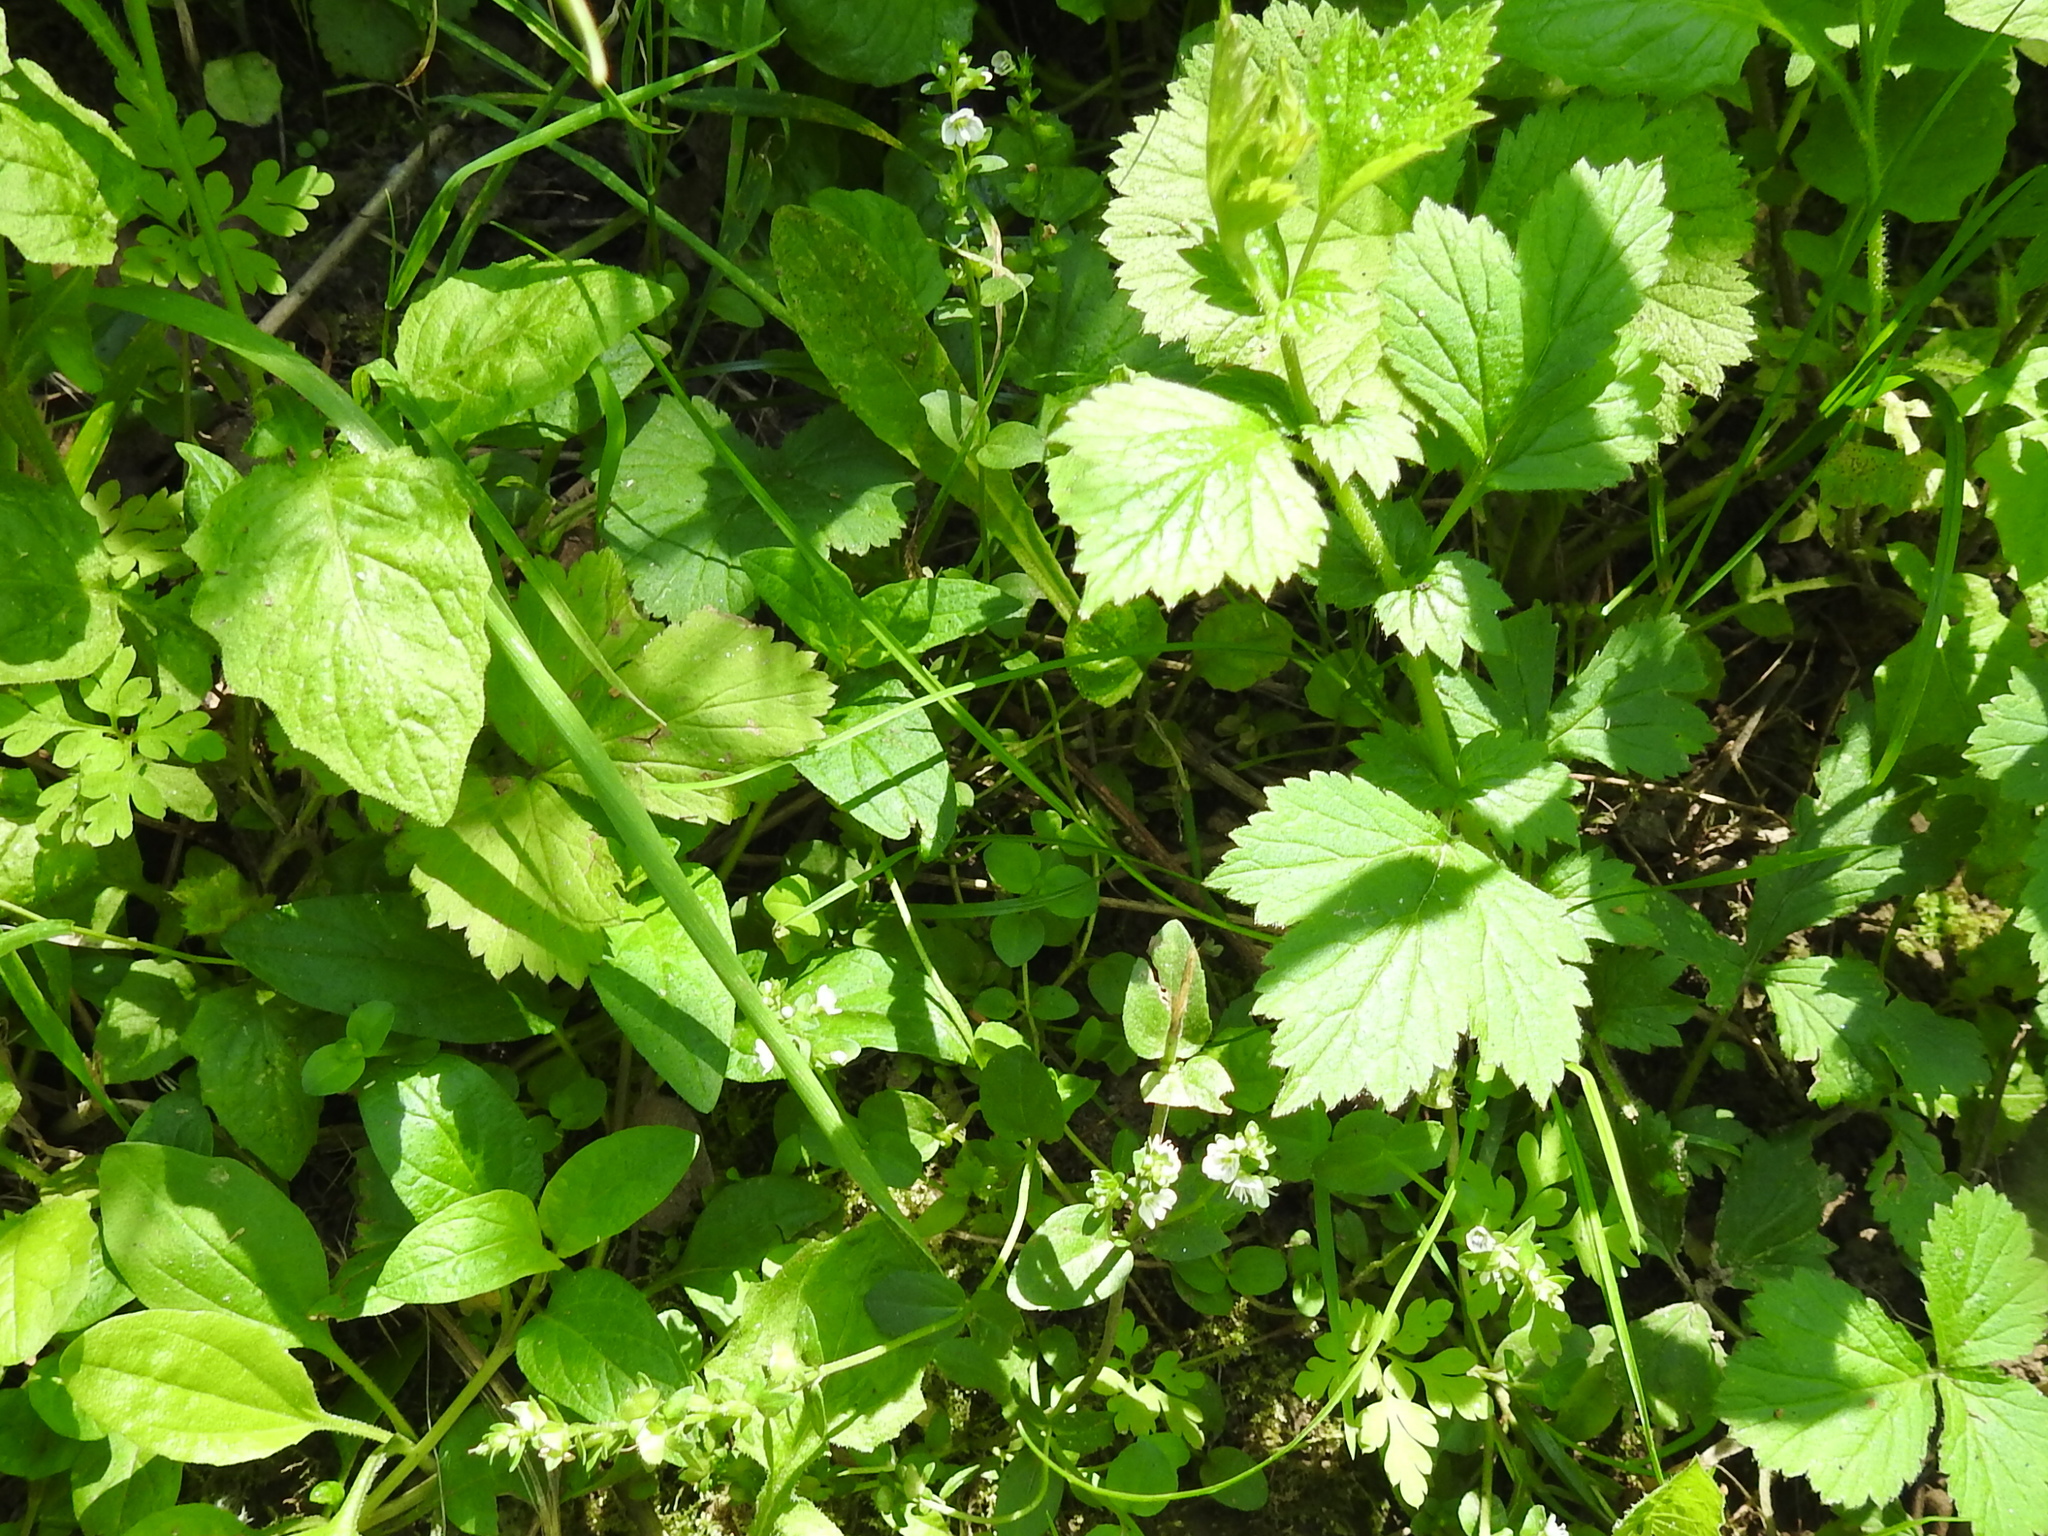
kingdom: Plantae
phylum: Tracheophyta
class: Magnoliopsida
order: Lamiales
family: Plantaginaceae
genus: Veronica
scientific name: Veronica serpyllifolia
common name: Thyme-leaved speedwell
